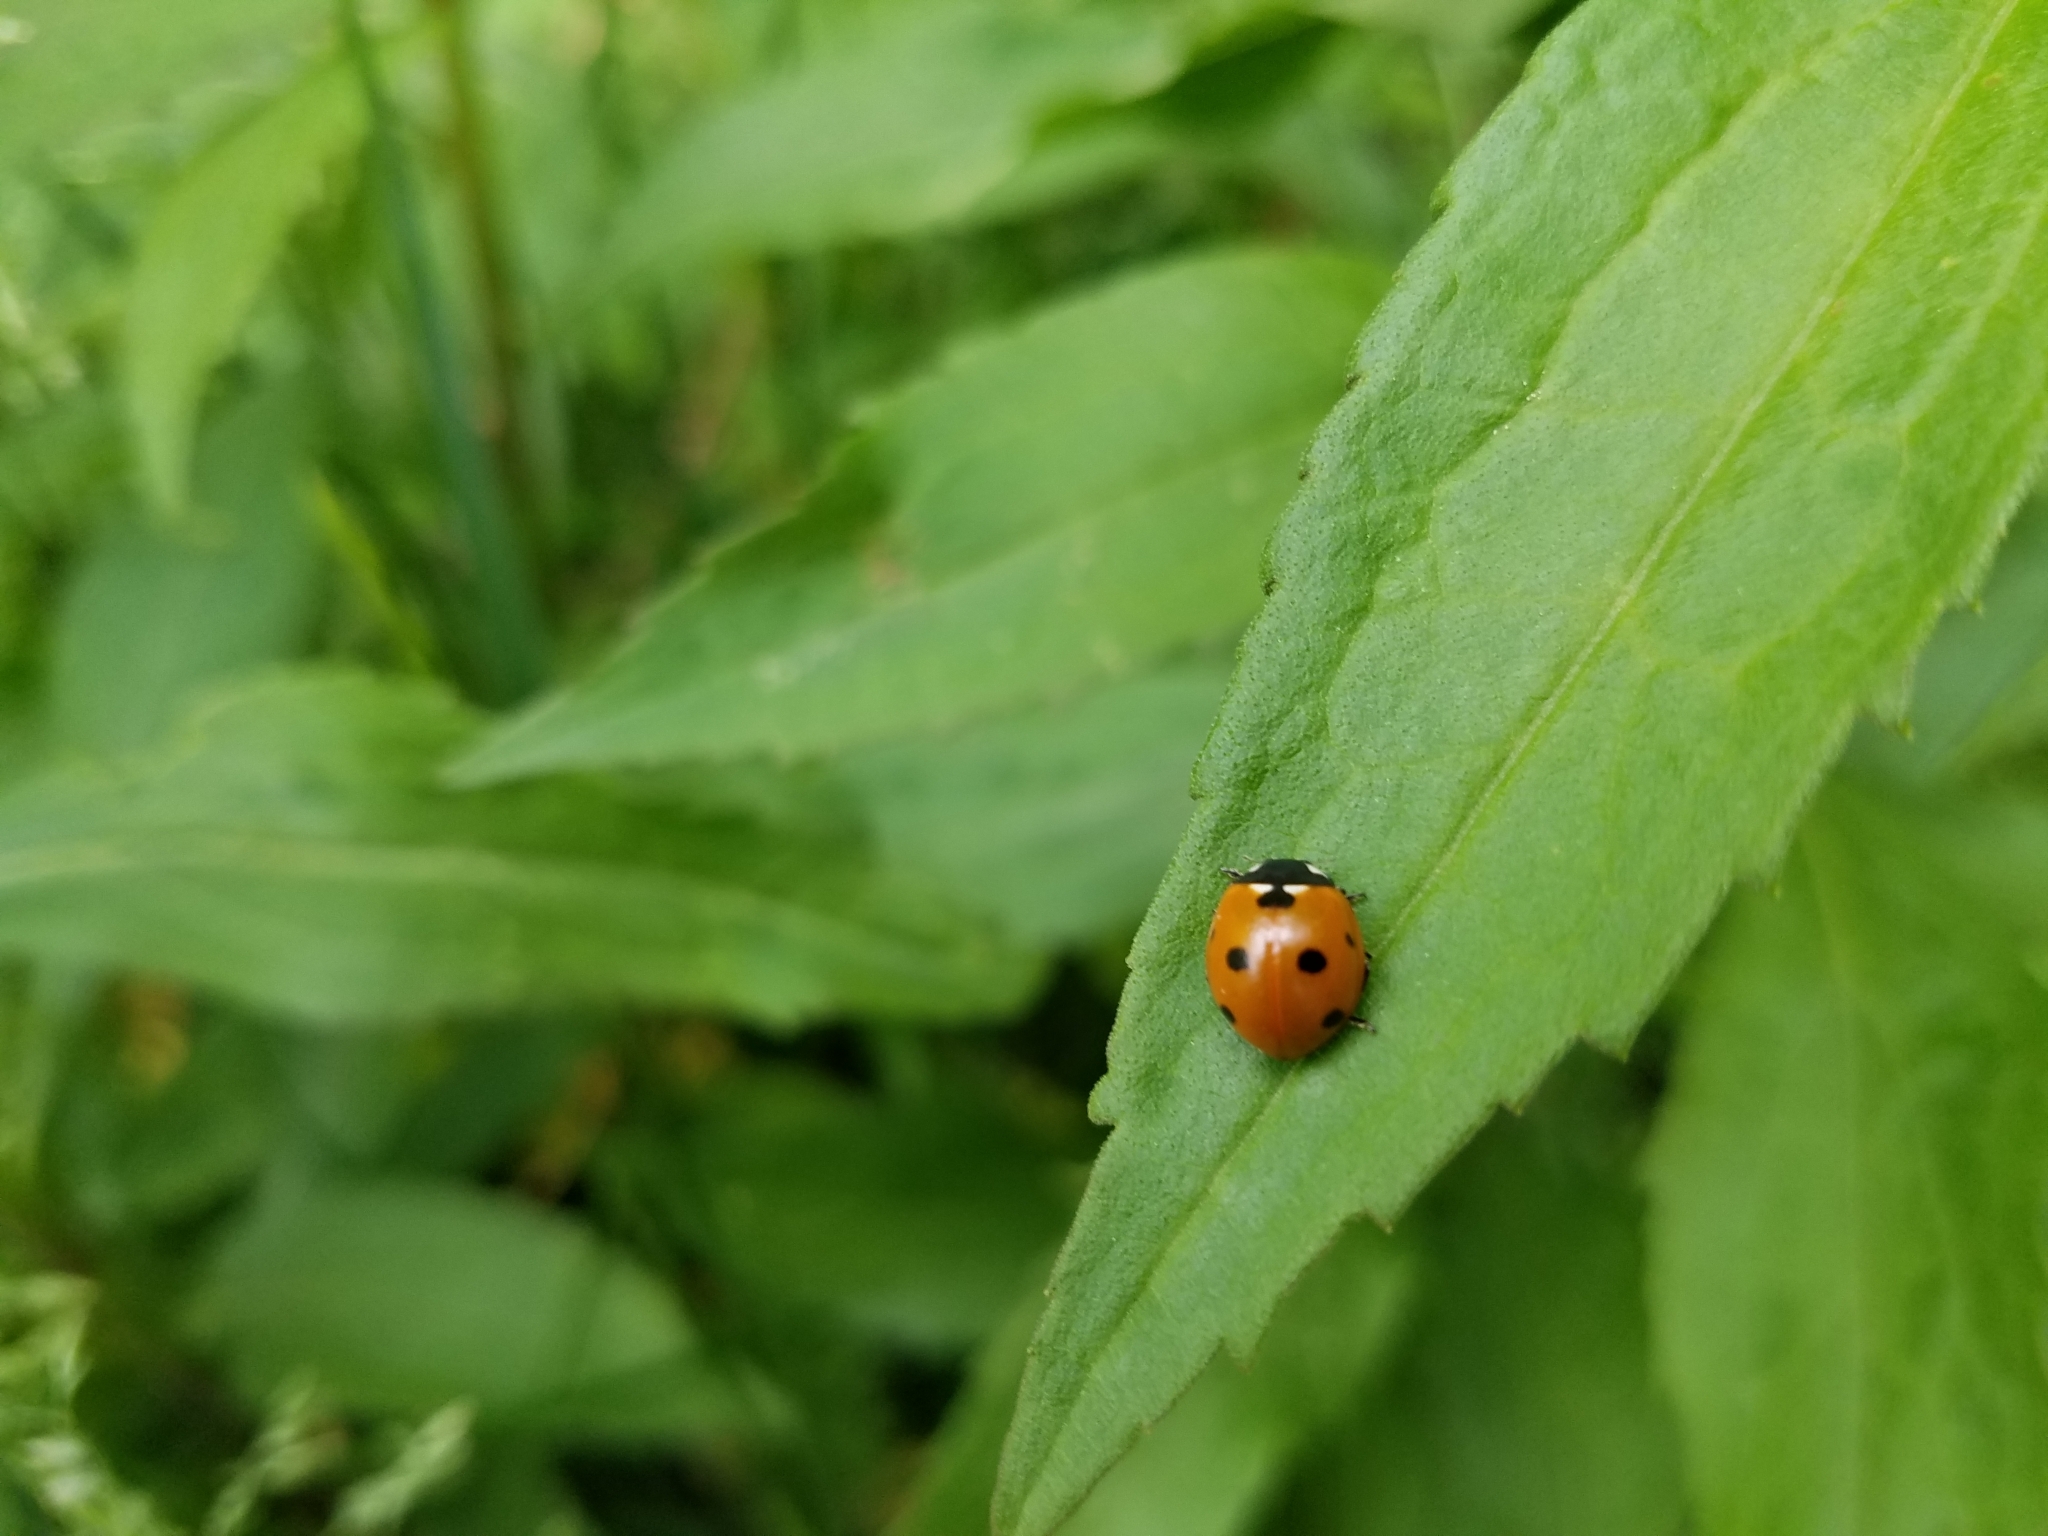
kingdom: Animalia
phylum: Arthropoda
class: Insecta
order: Coleoptera
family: Coccinellidae
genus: Coccinella
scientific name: Coccinella septempunctata
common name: Sevenspotted lady beetle
